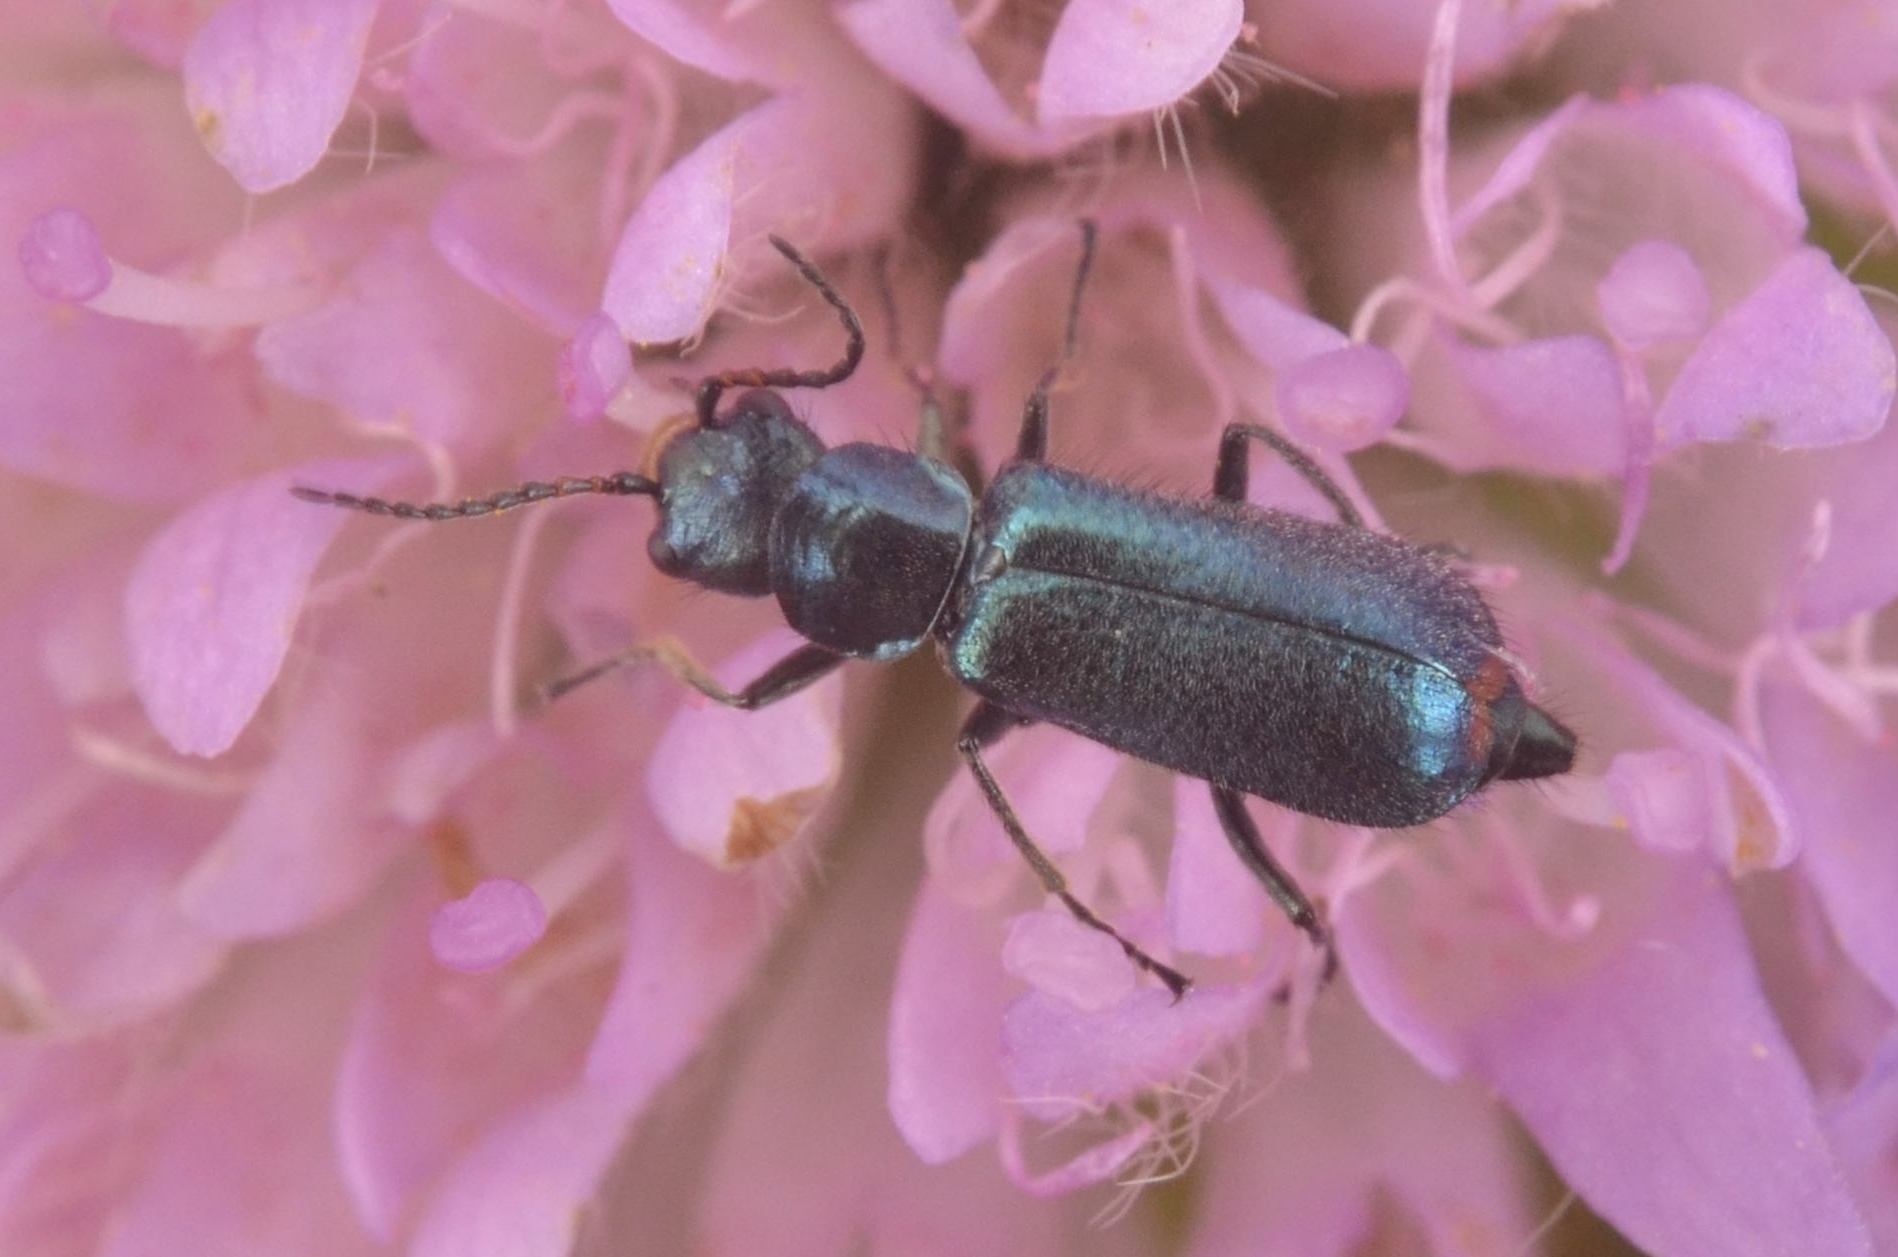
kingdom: Animalia
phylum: Arthropoda
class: Insecta
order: Coleoptera
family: Malachiidae
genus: Cordylepherus
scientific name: Cordylepherus viridis
